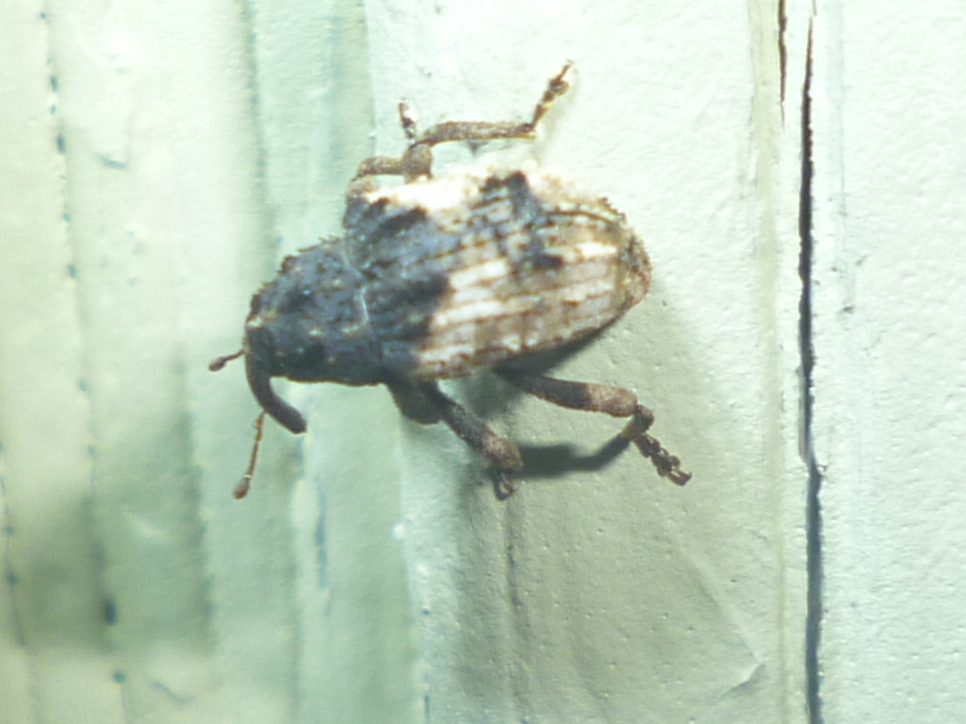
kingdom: Animalia
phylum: Arthropoda
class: Insecta
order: Coleoptera
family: Curculionidae
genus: Cryptorhynchus
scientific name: Cryptorhynchus fuscatus
